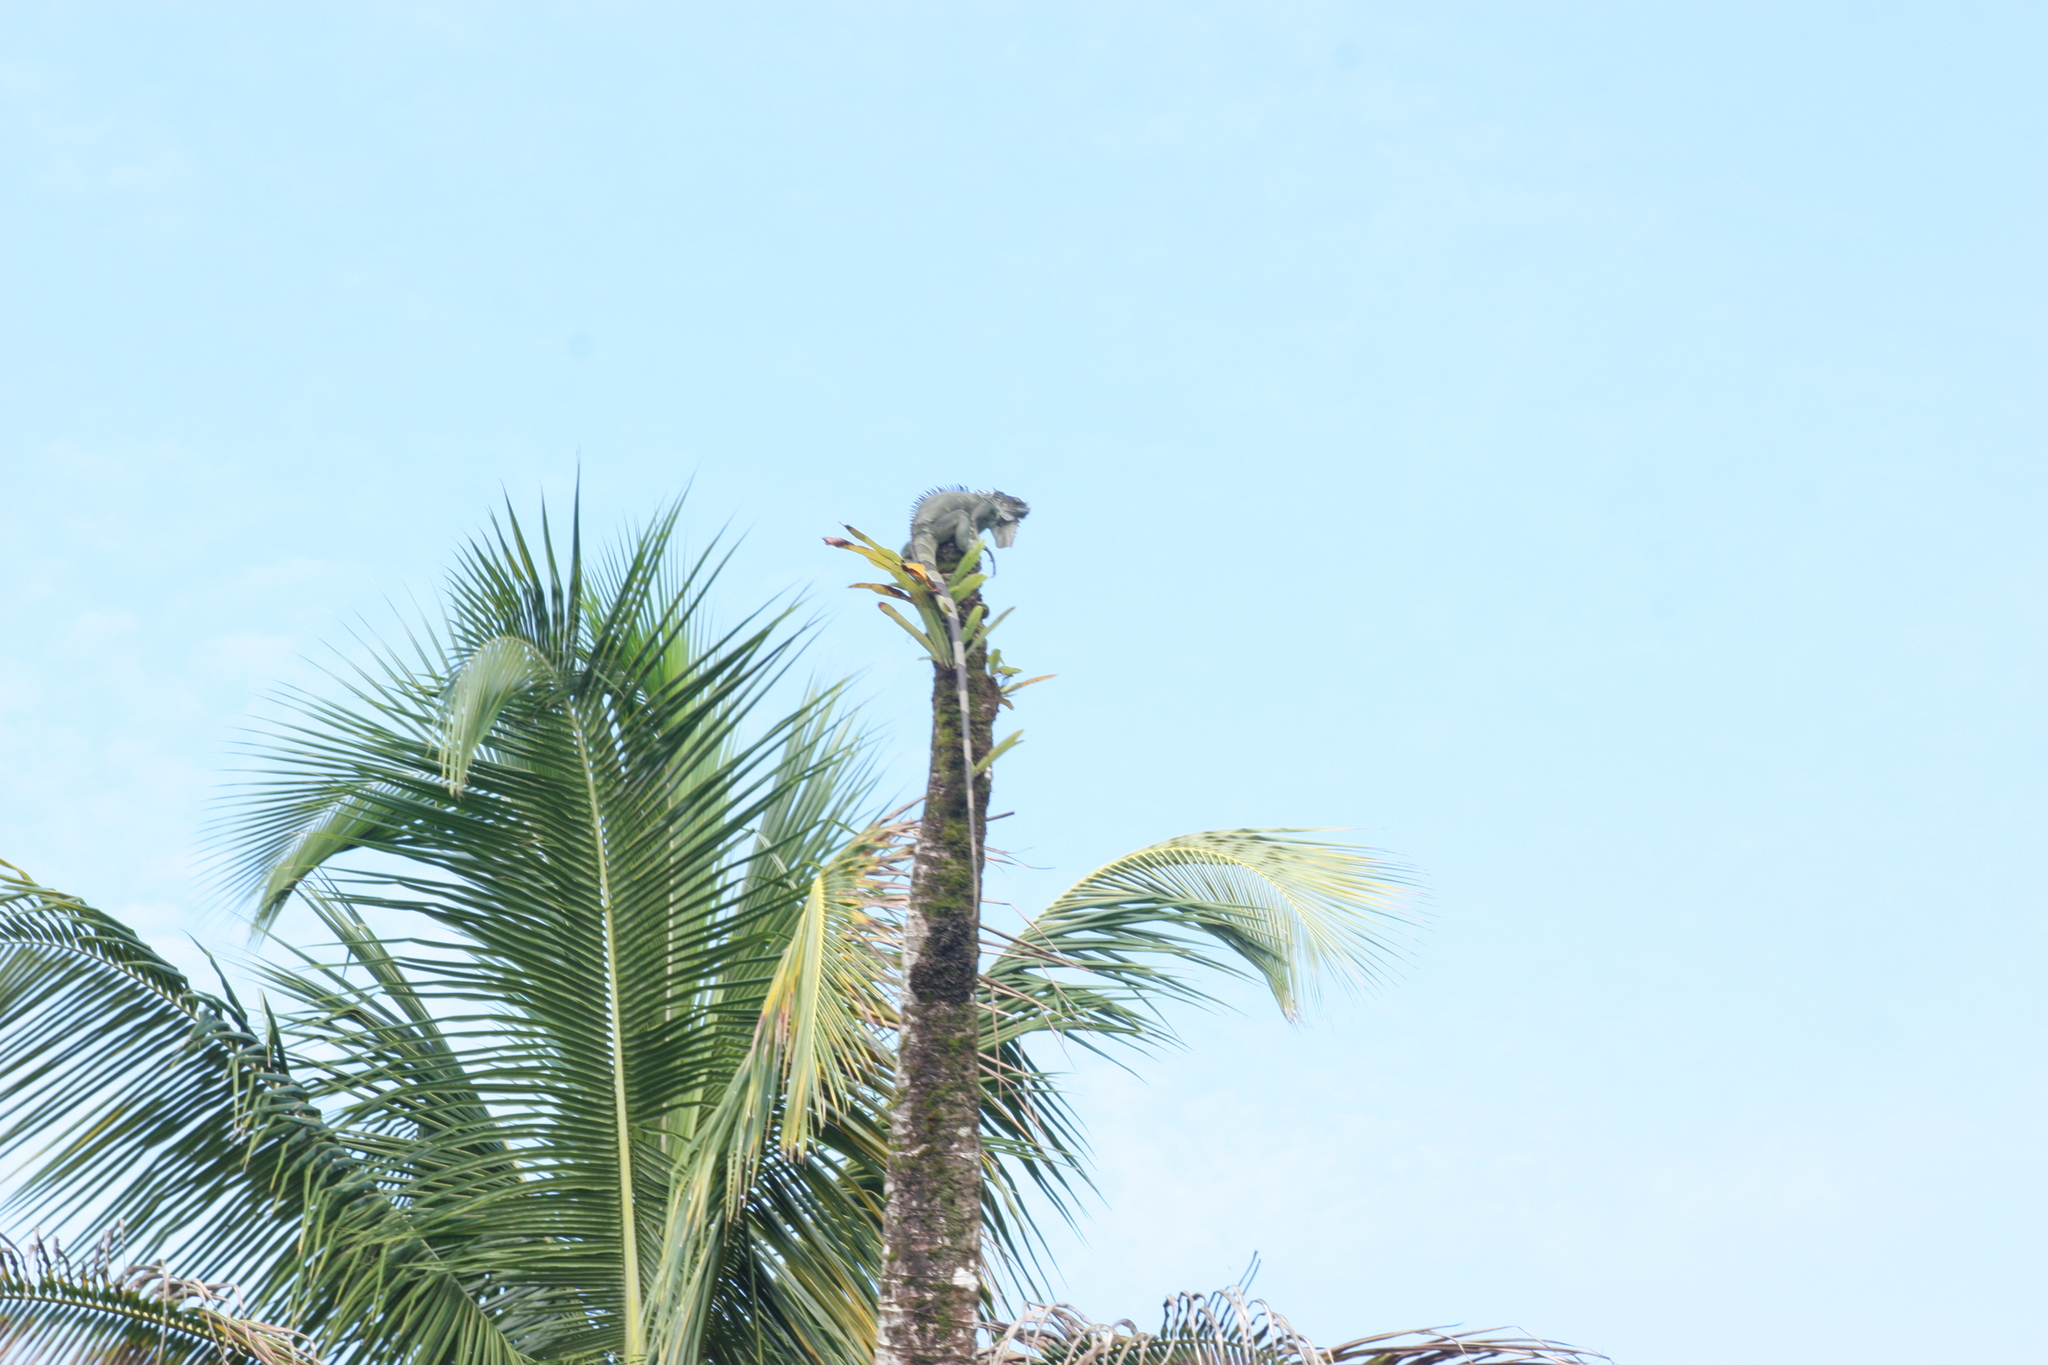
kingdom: Animalia
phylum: Chordata
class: Squamata
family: Iguanidae
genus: Iguana
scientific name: Iguana iguana
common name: Green iguana
